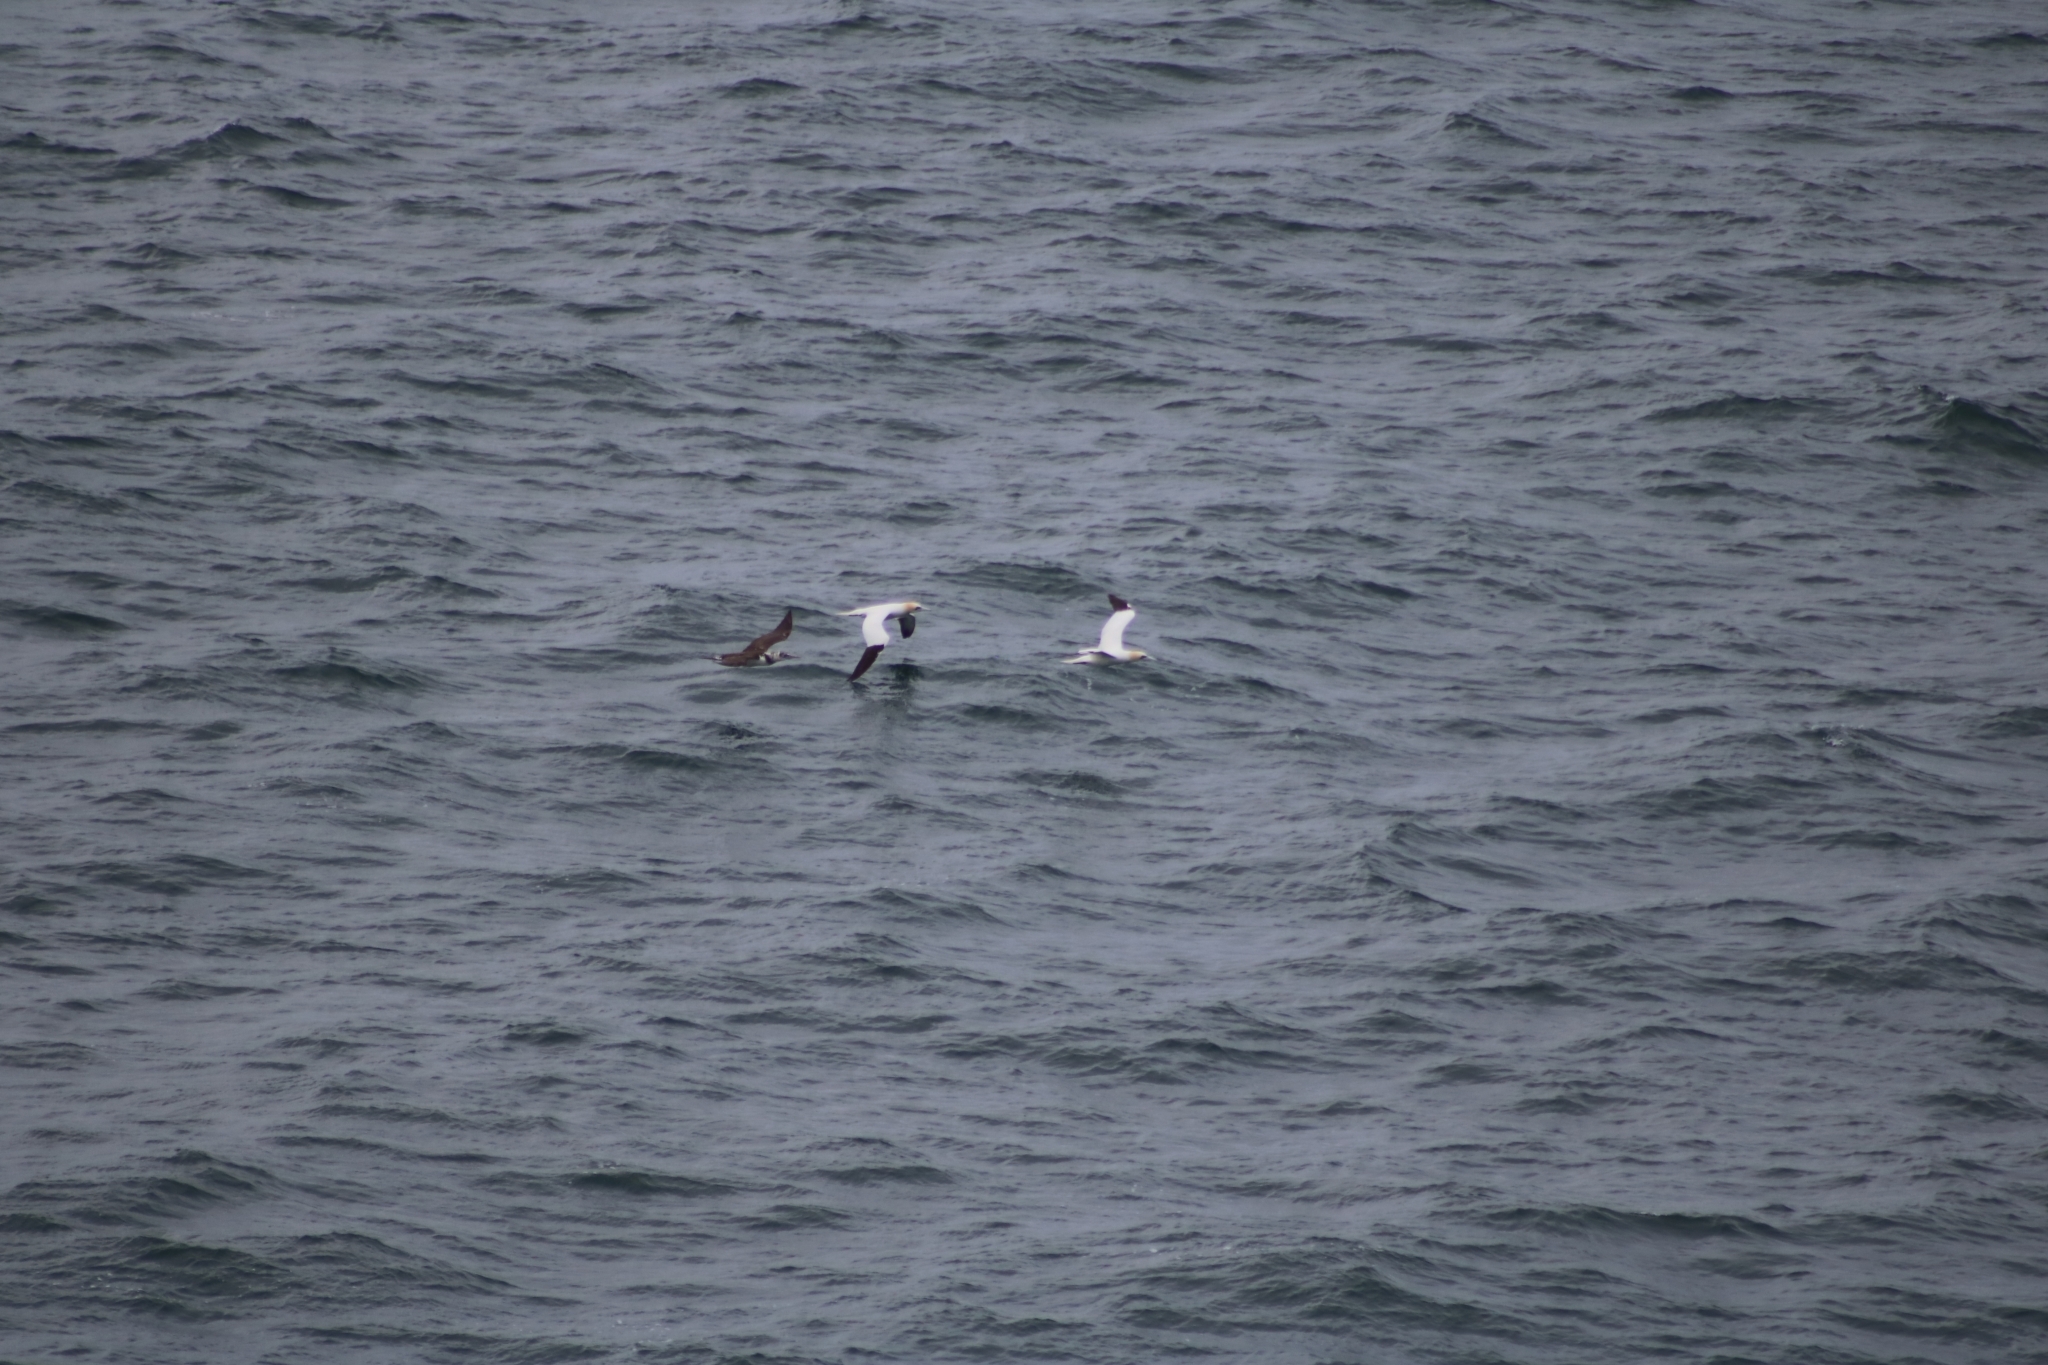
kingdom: Animalia
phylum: Chordata
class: Aves
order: Suliformes
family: Sulidae
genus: Morus
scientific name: Morus bassanus
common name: Northern gannet
